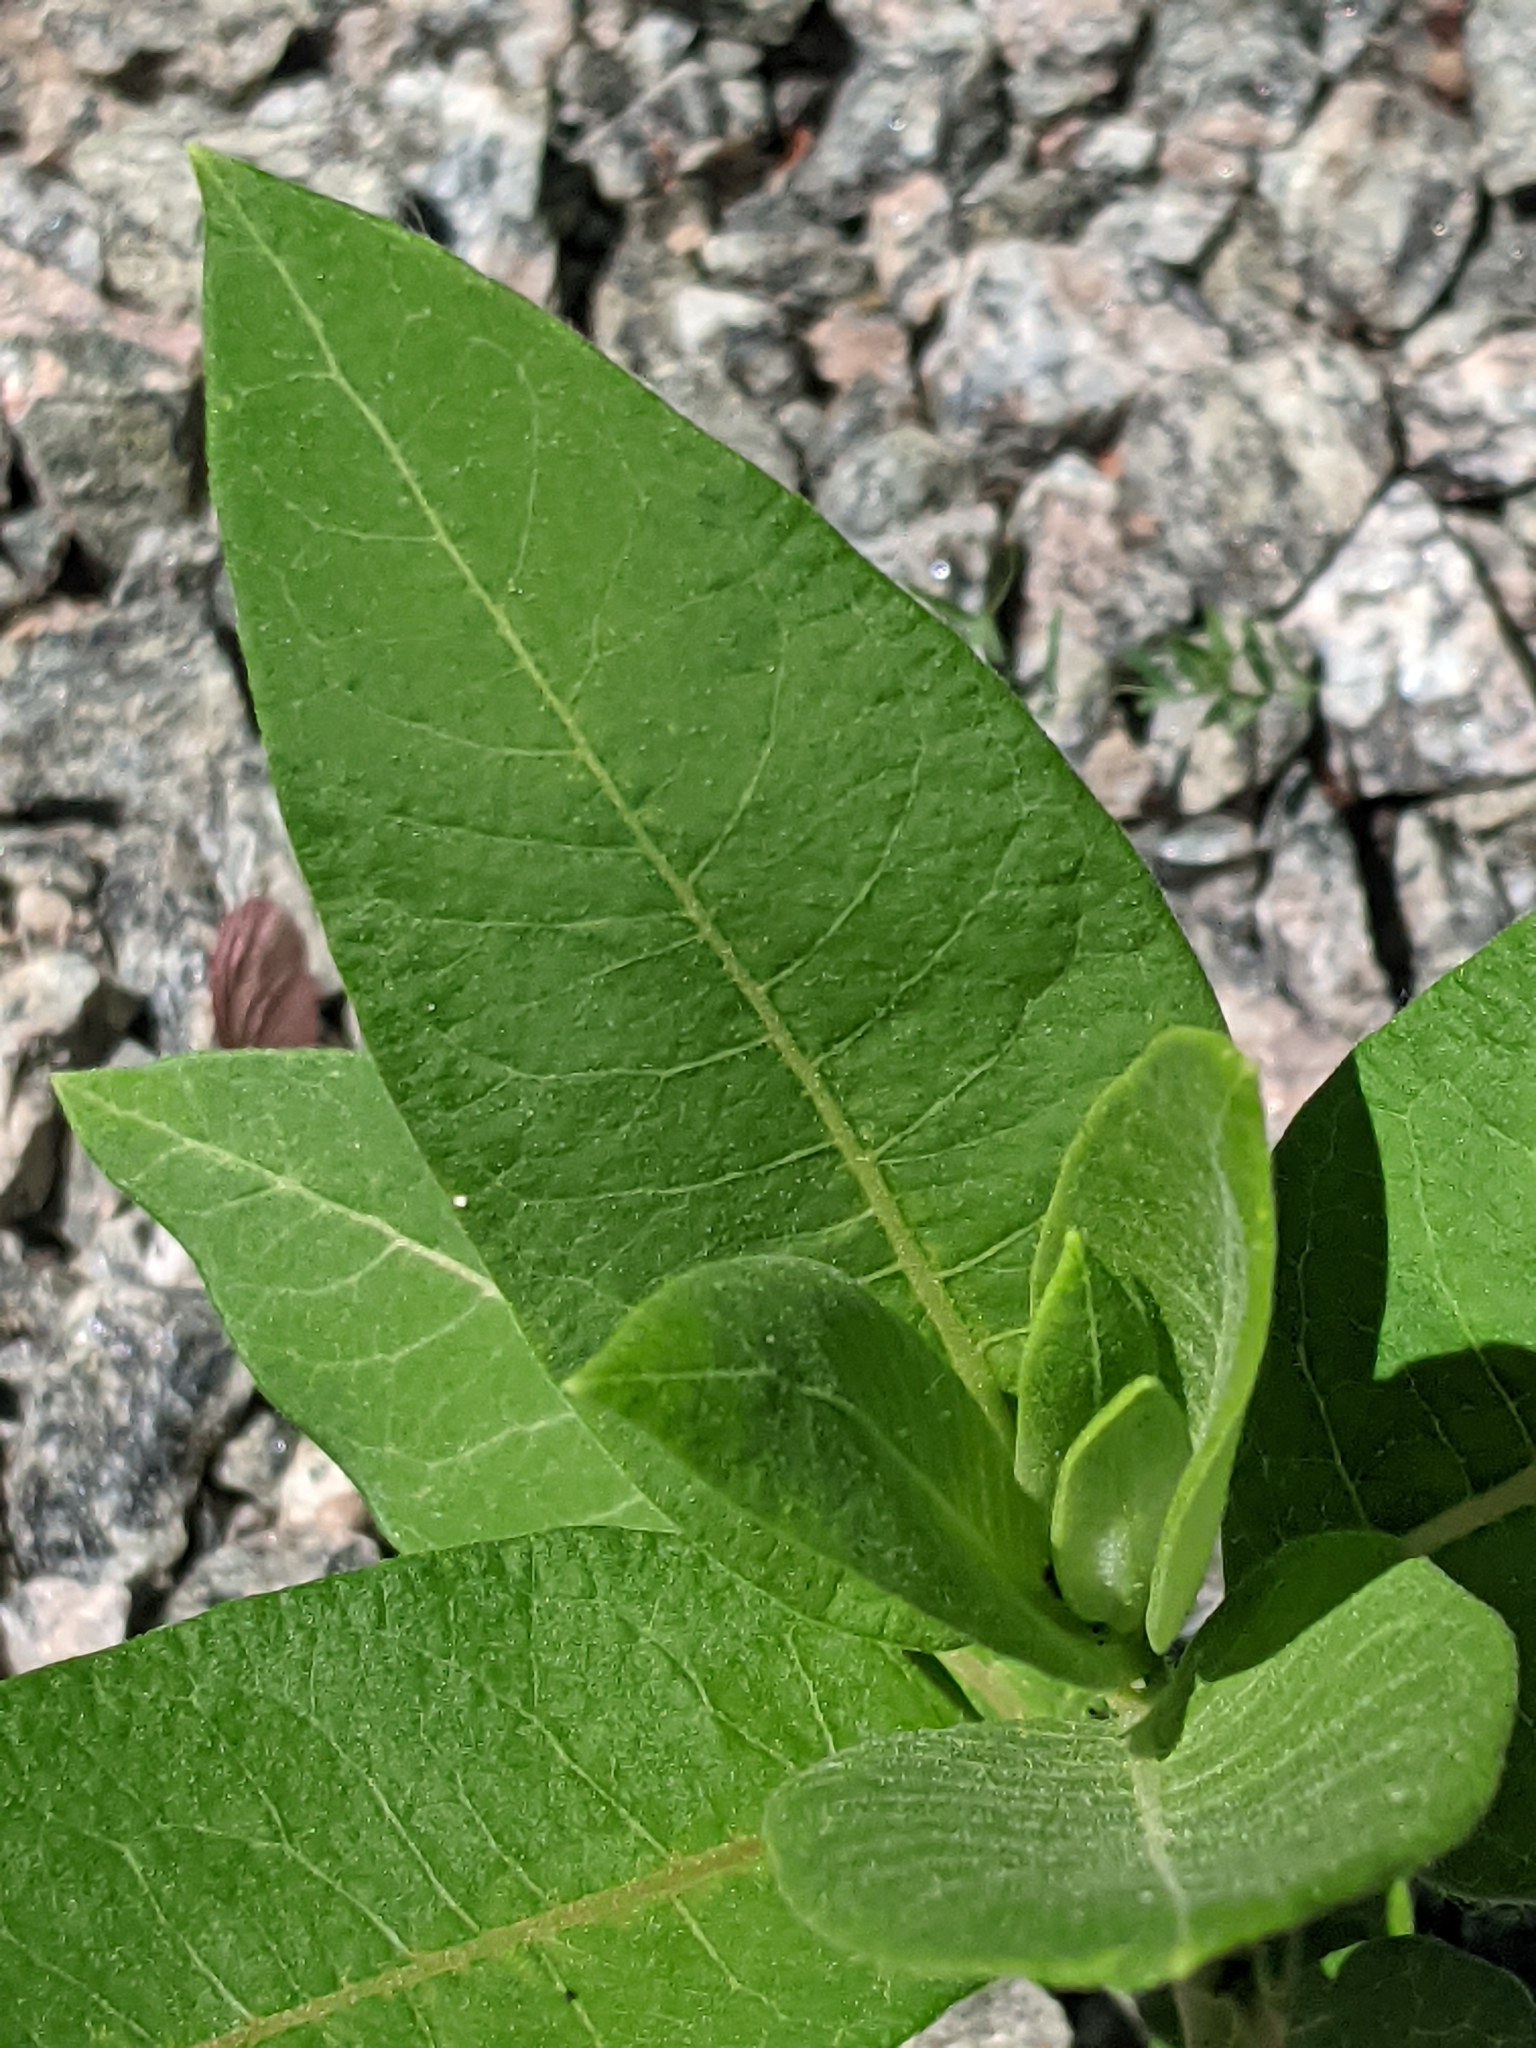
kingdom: Plantae
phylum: Tracheophyta
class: Magnoliopsida
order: Gentianales
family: Apocynaceae
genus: Asclepias
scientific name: Asclepias syriaca
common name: Common milkweed
